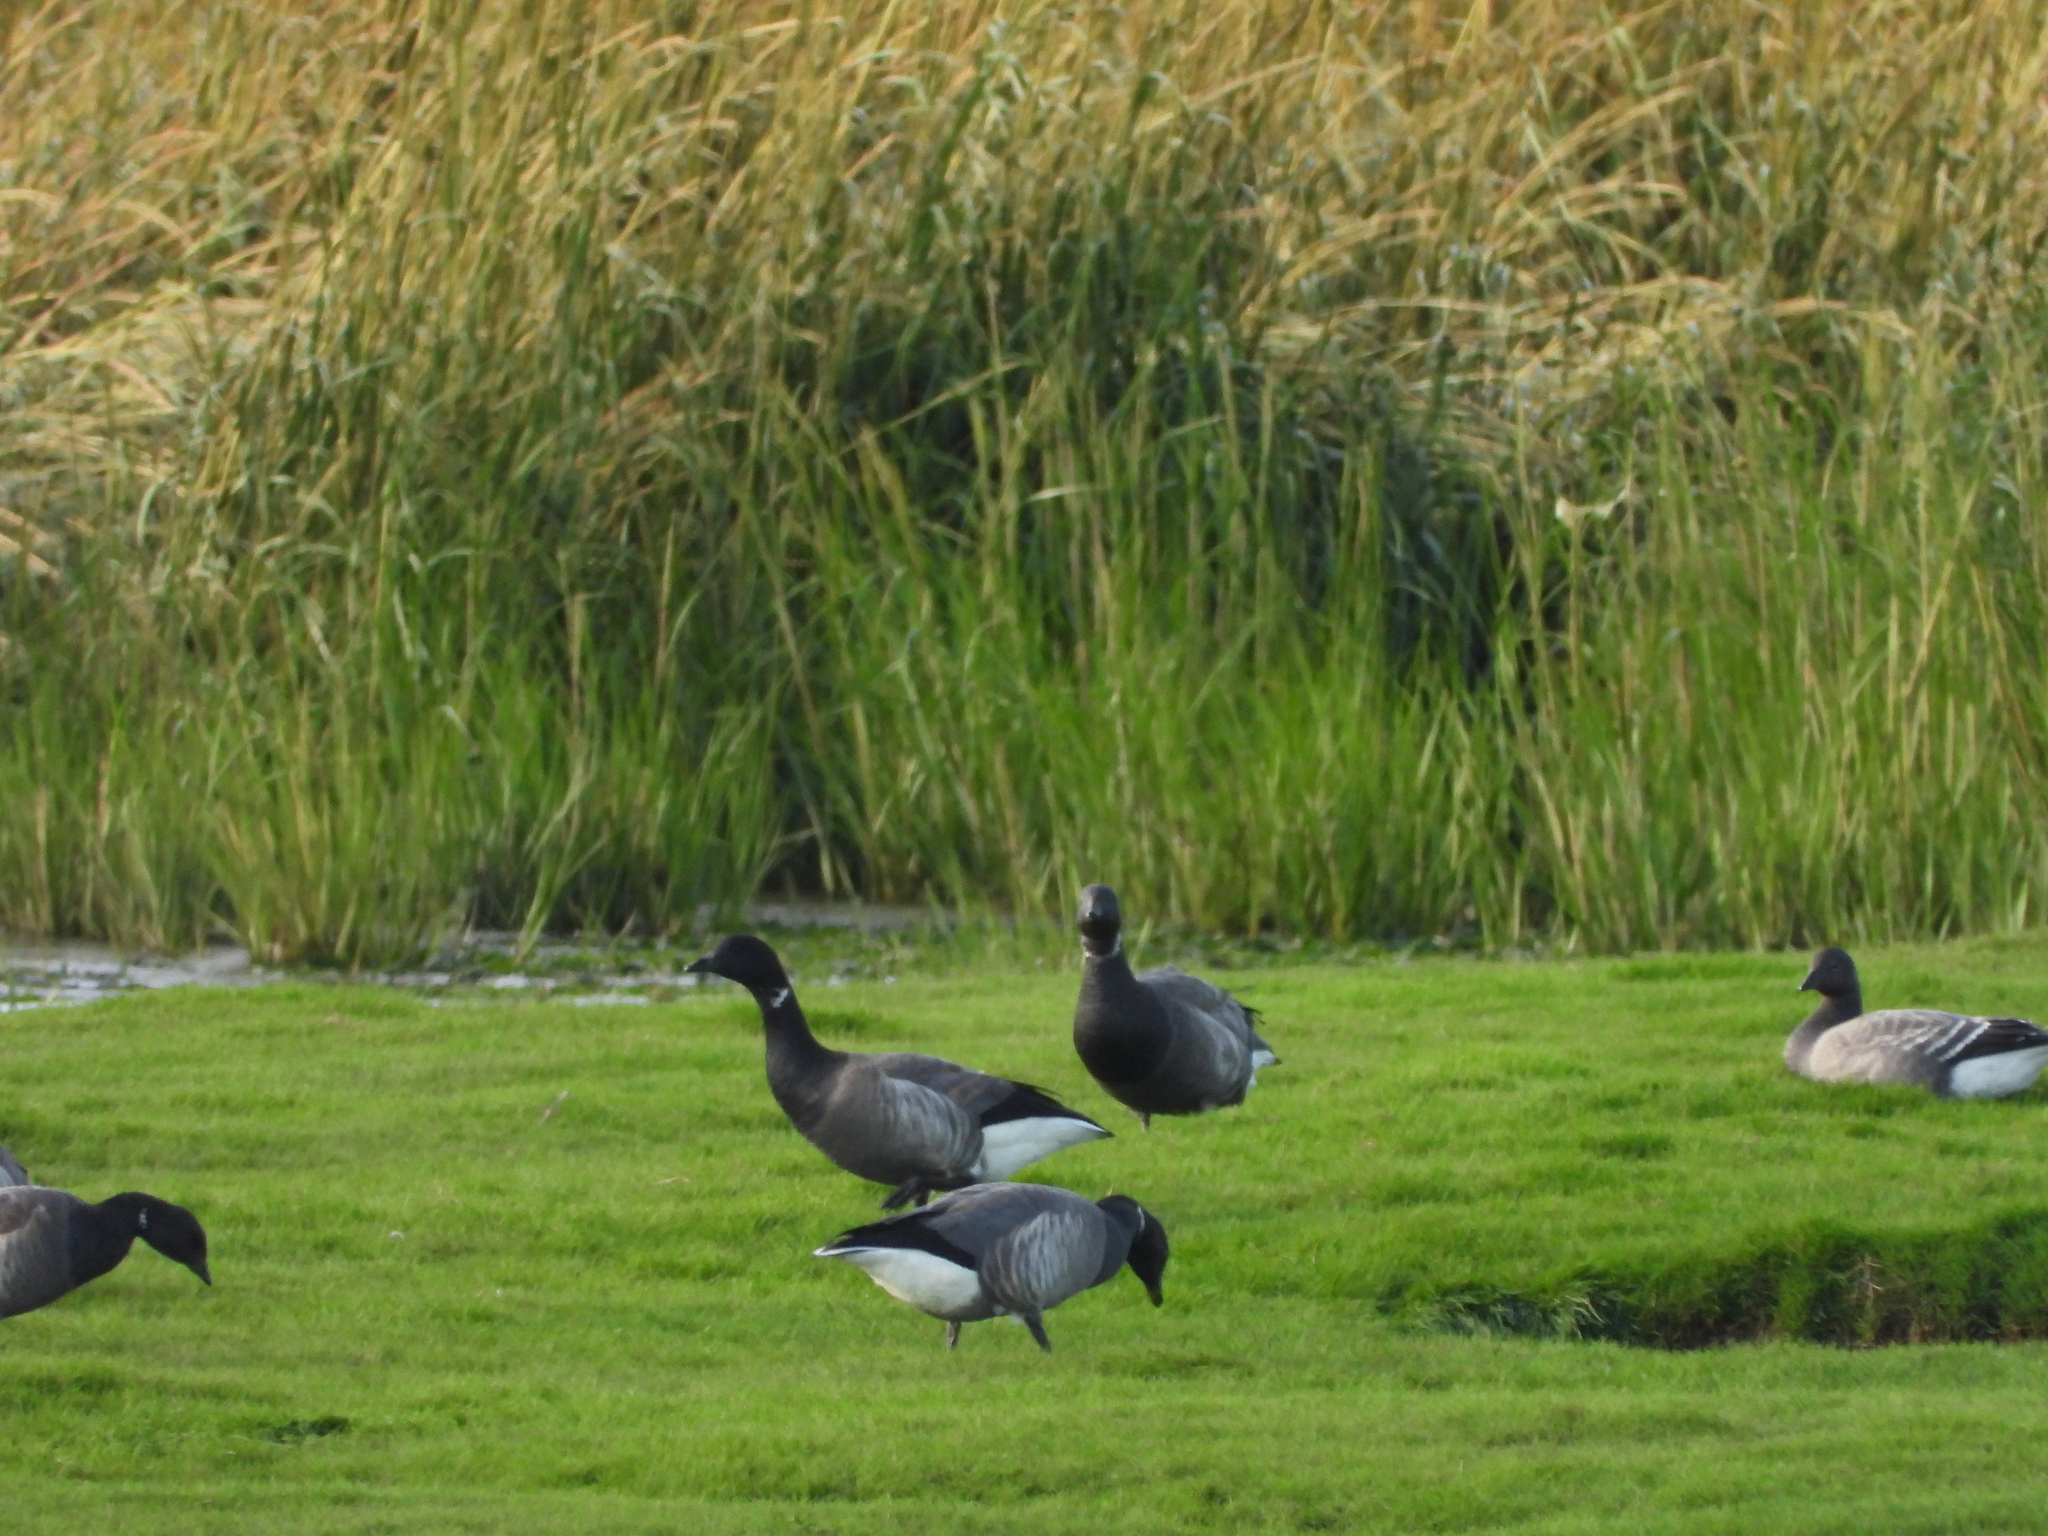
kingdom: Animalia
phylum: Chordata
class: Aves
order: Anseriformes
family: Anatidae
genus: Branta
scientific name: Branta bernicla
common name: Brant goose
